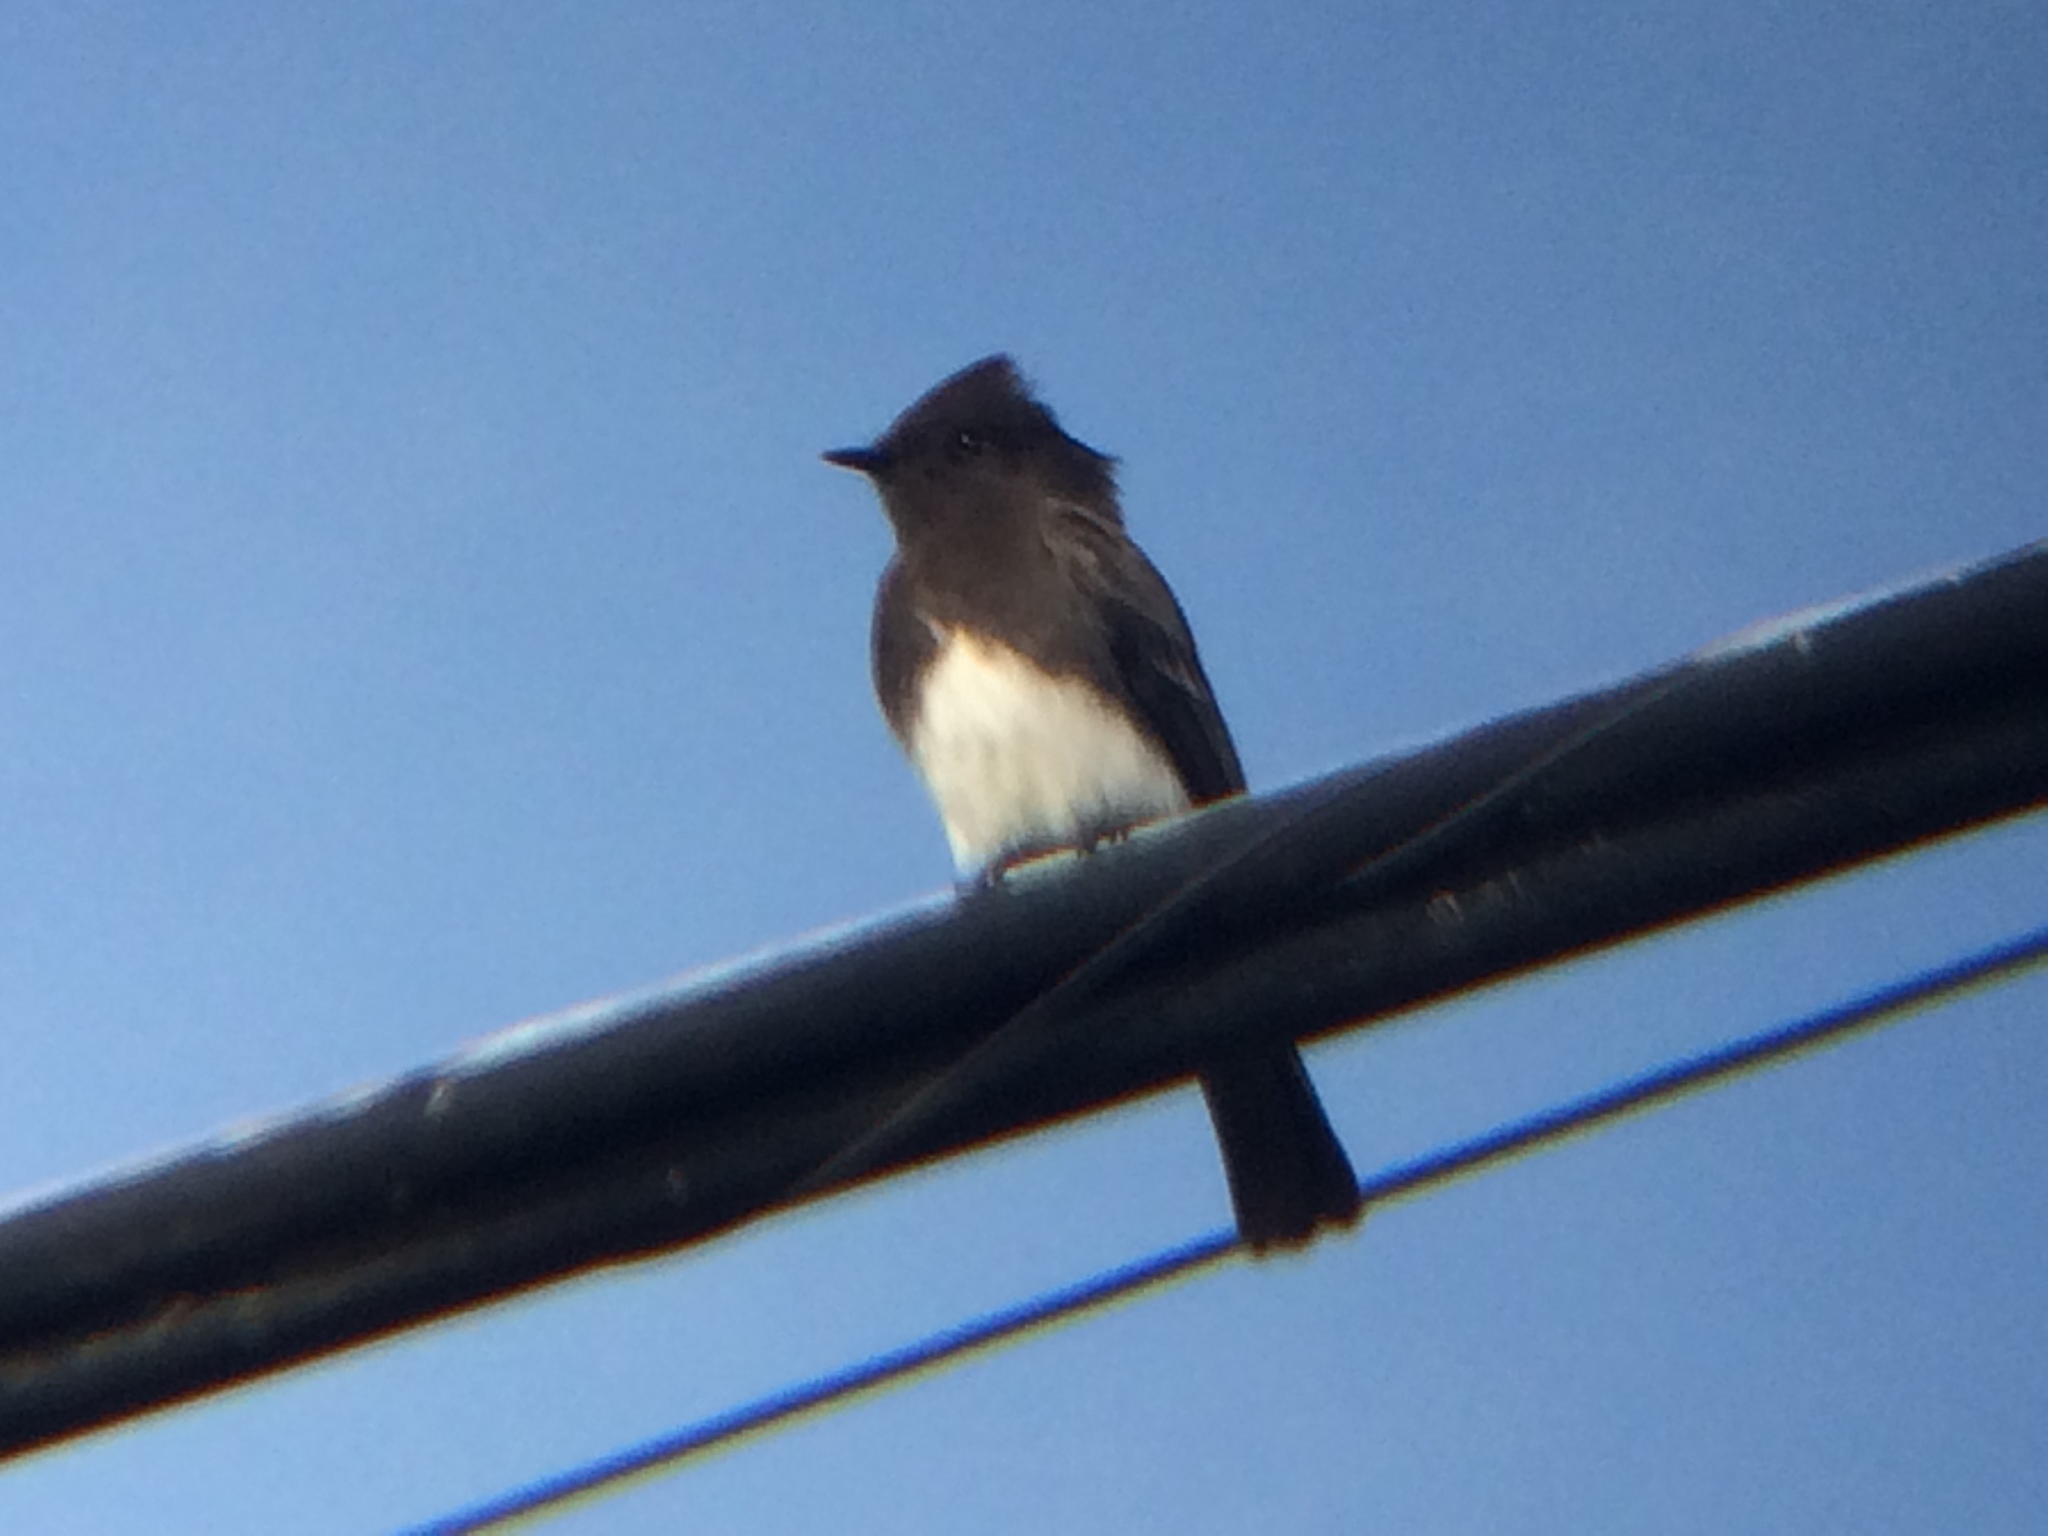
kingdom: Animalia
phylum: Chordata
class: Aves
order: Passeriformes
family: Tyrannidae
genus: Sayornis
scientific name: Sayornis nigricans
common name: Black phoebe
